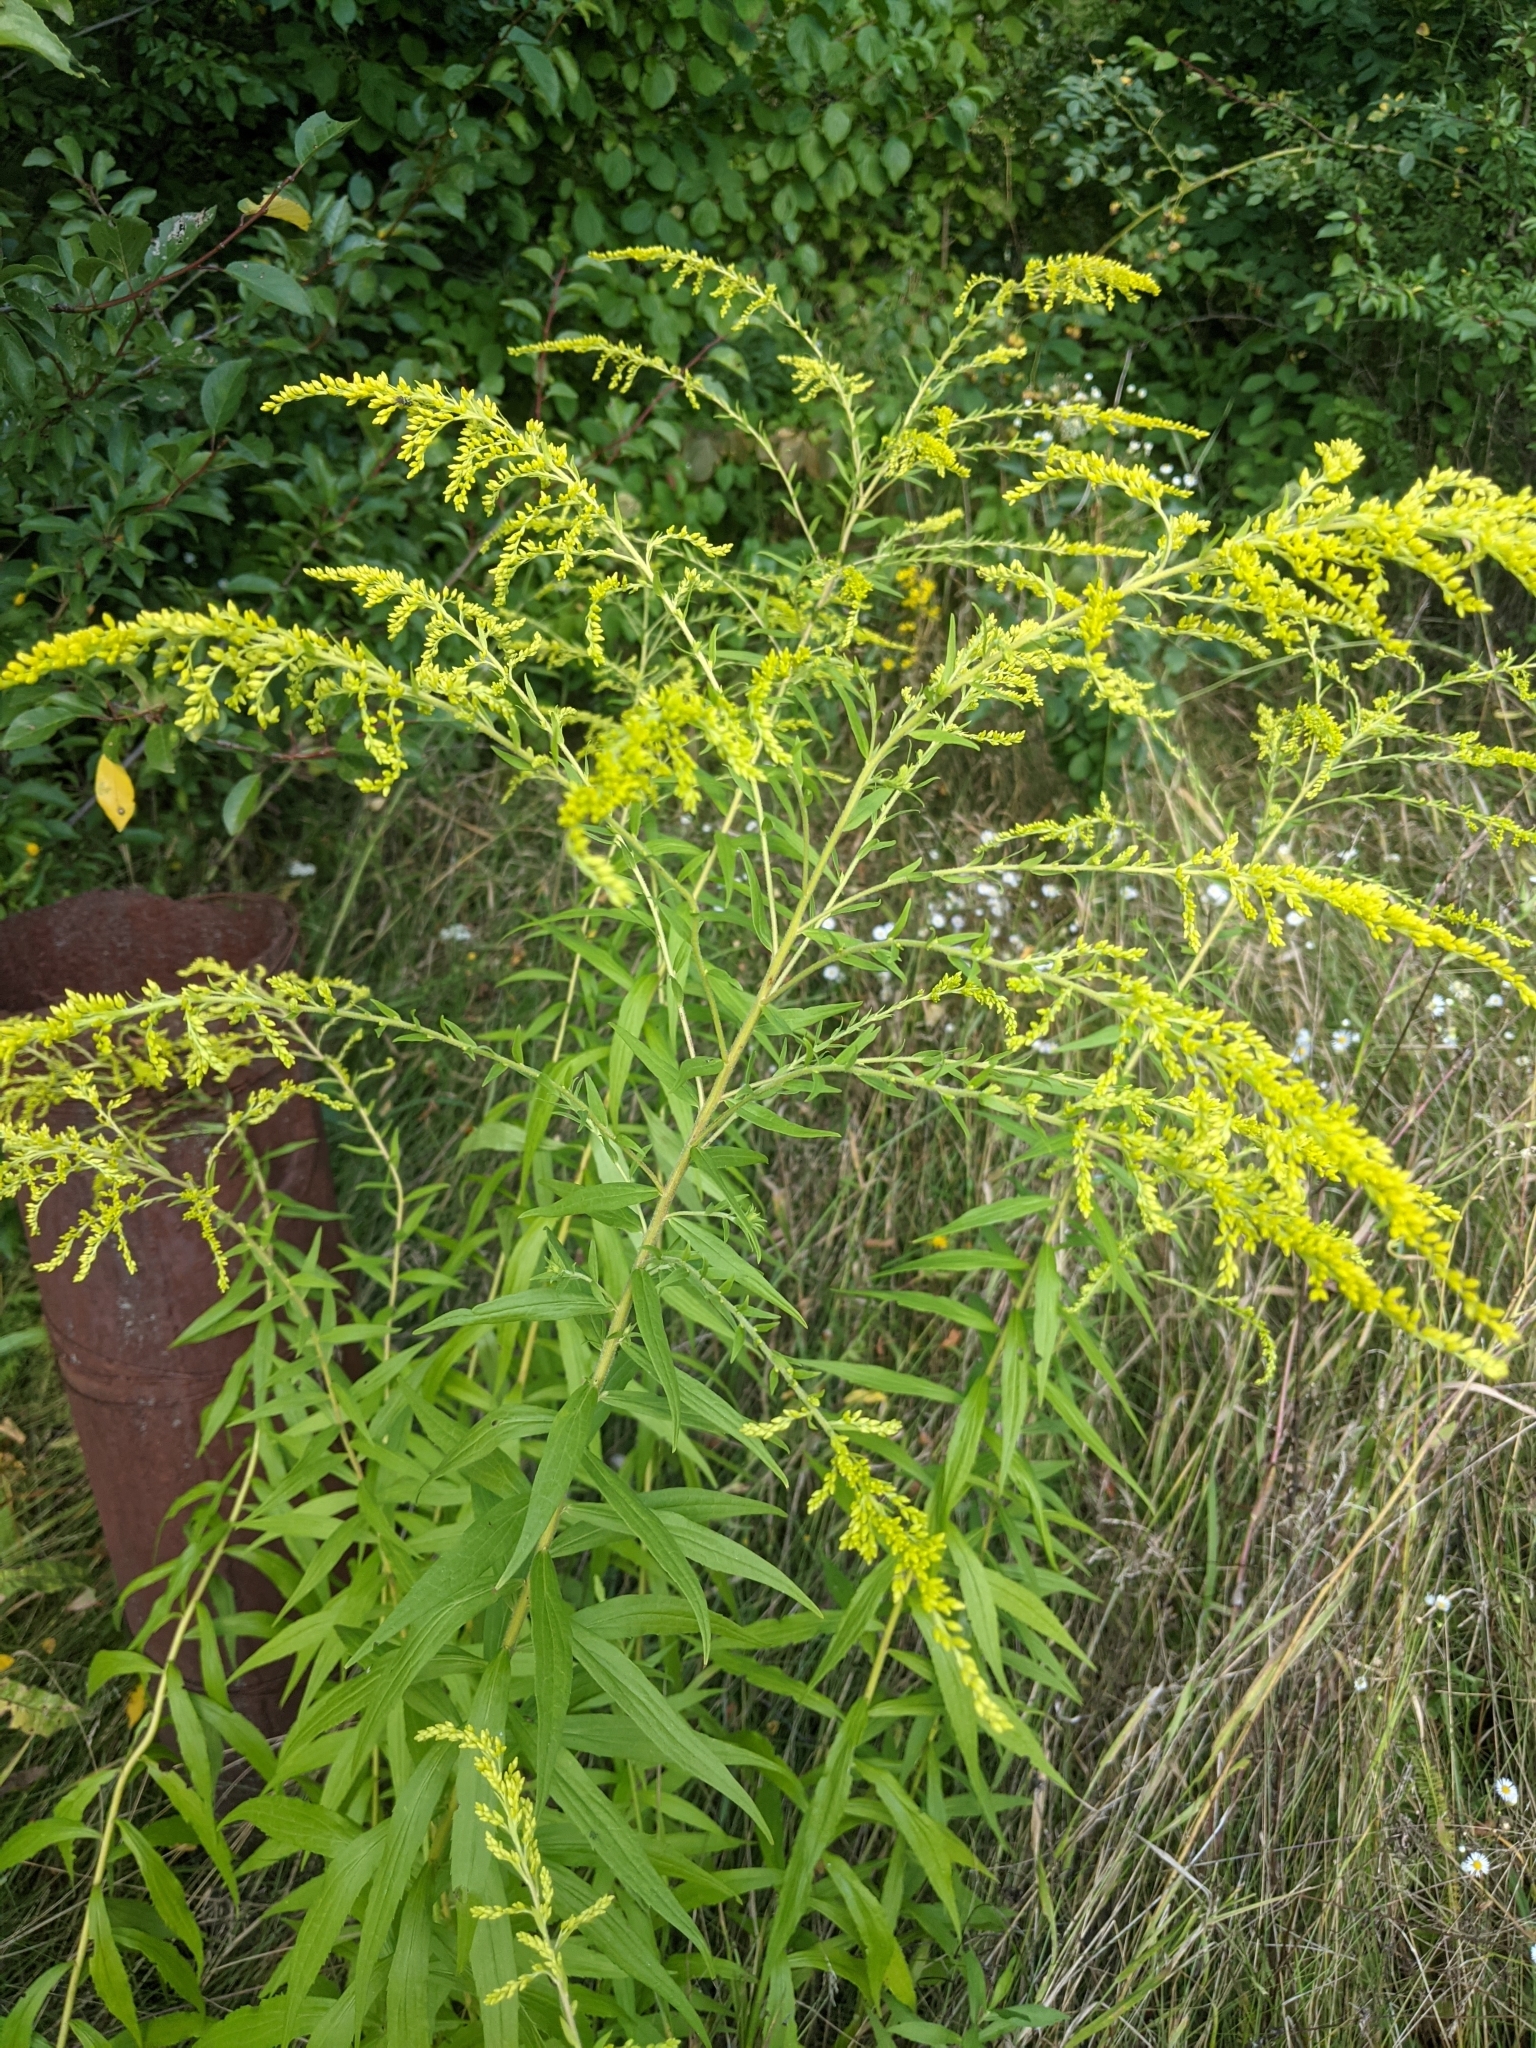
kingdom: Plantae
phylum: Tracheophyta
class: Magnoliopsida
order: Asterales
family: Asteraceae
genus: Solidago
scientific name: Solidago canadensis
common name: Canada goldenrod
